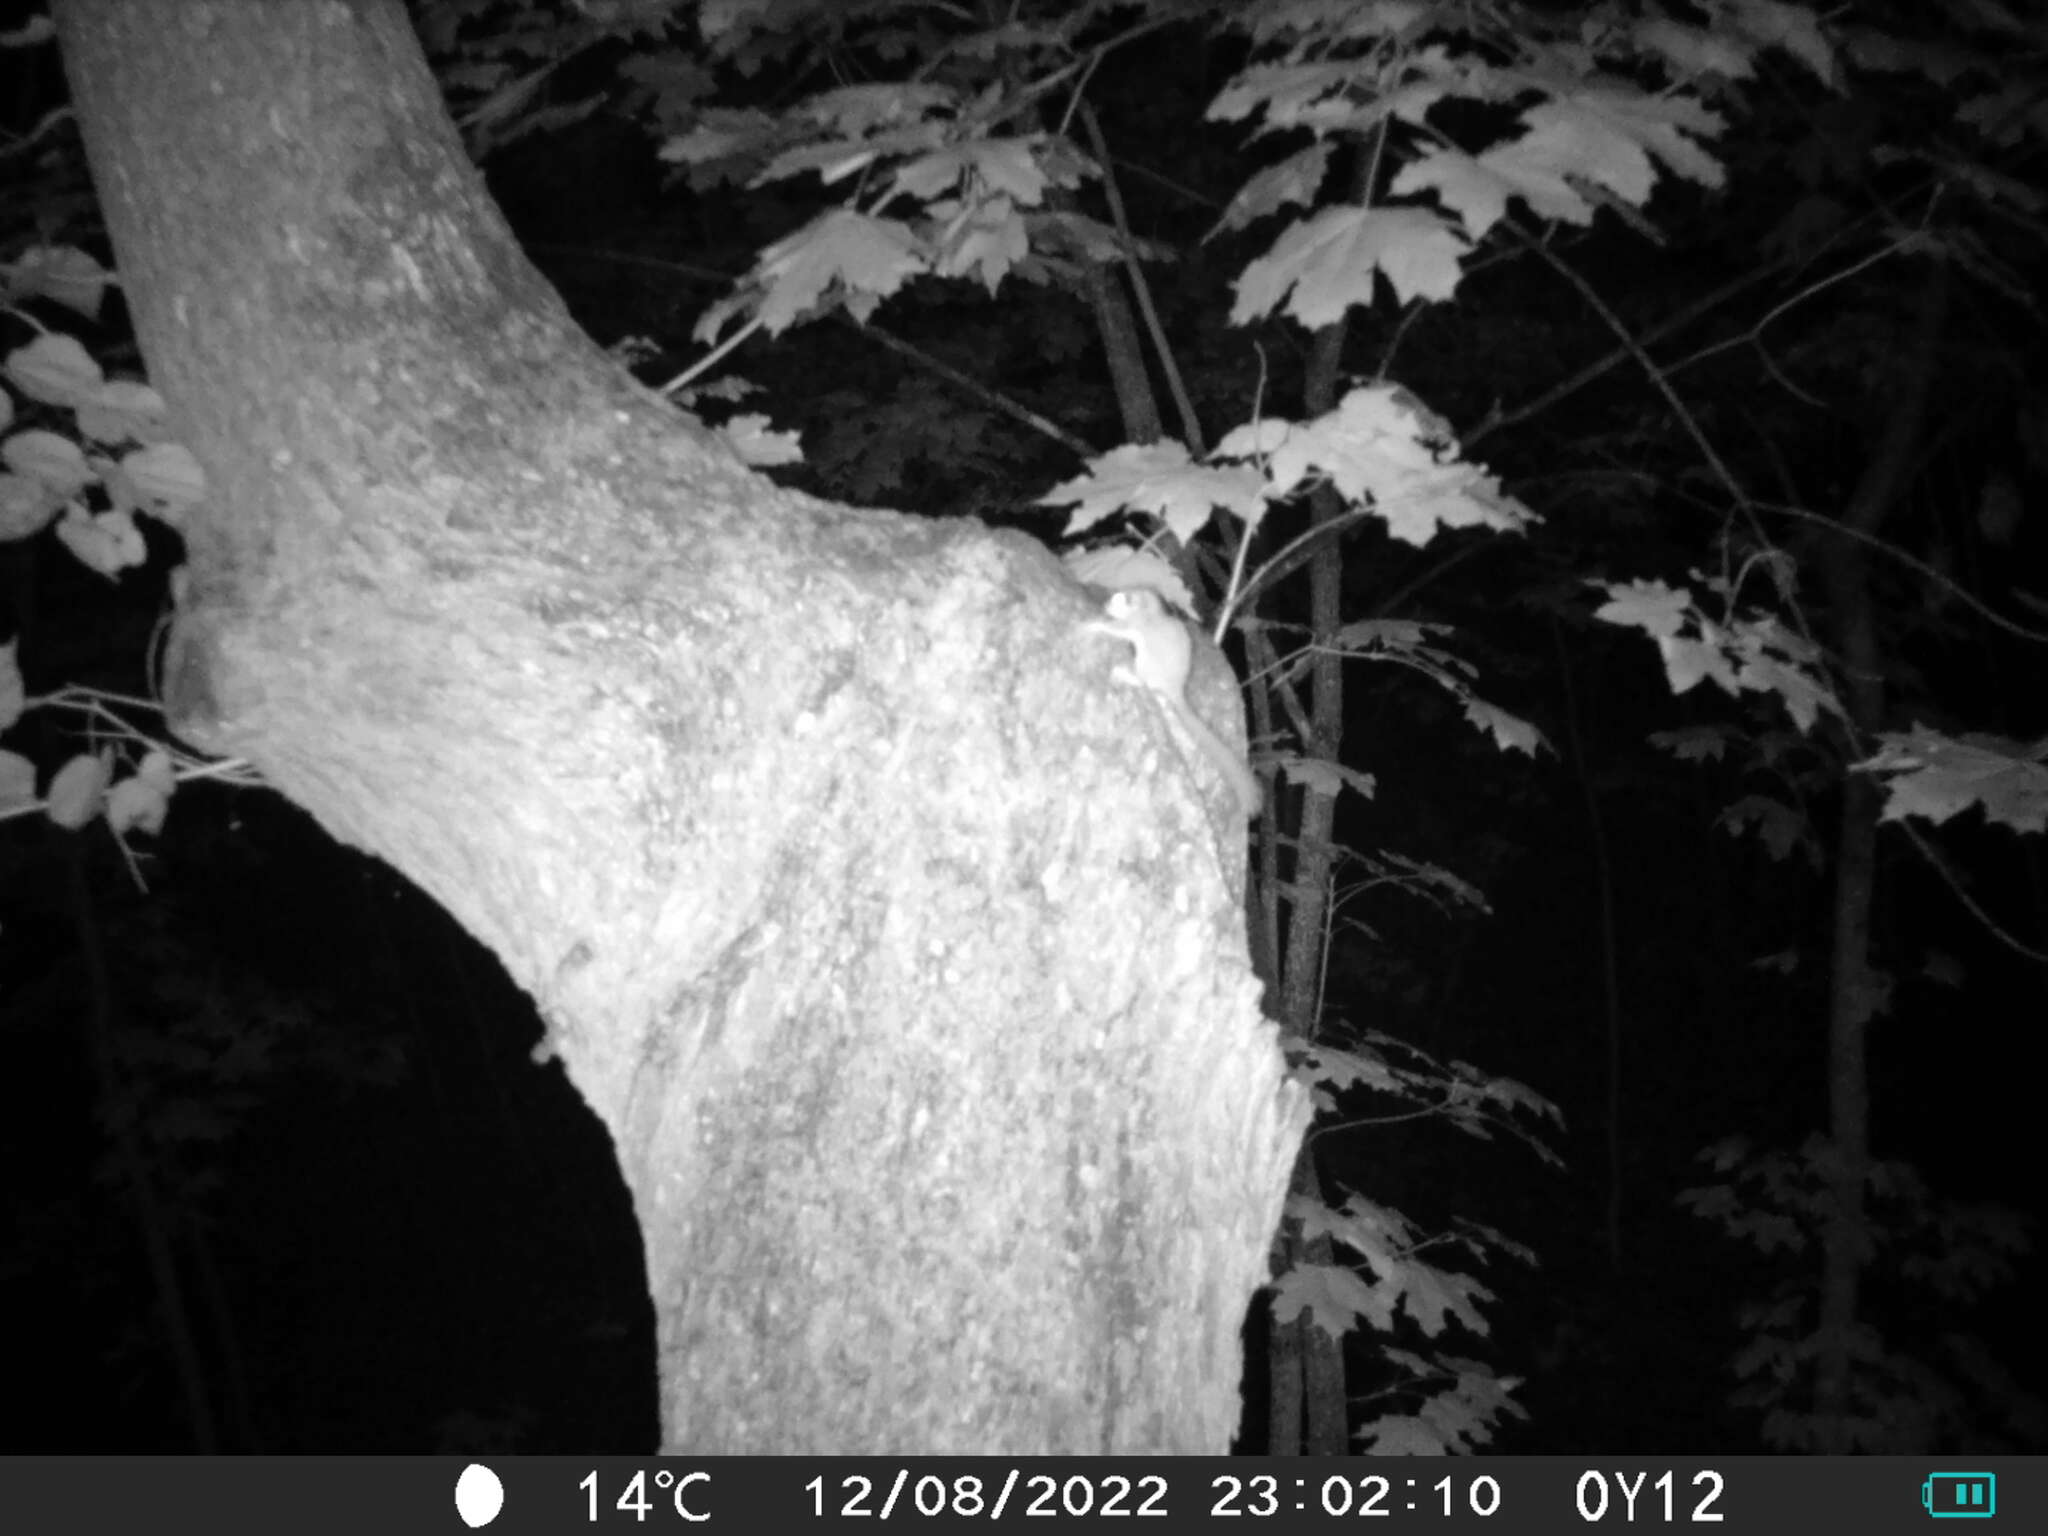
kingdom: Animalia
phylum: Chordata
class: Mammalia
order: Rodentia
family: Gliridae
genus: Dryomys
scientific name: Dryomys nitedula
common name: Forest dormouse
